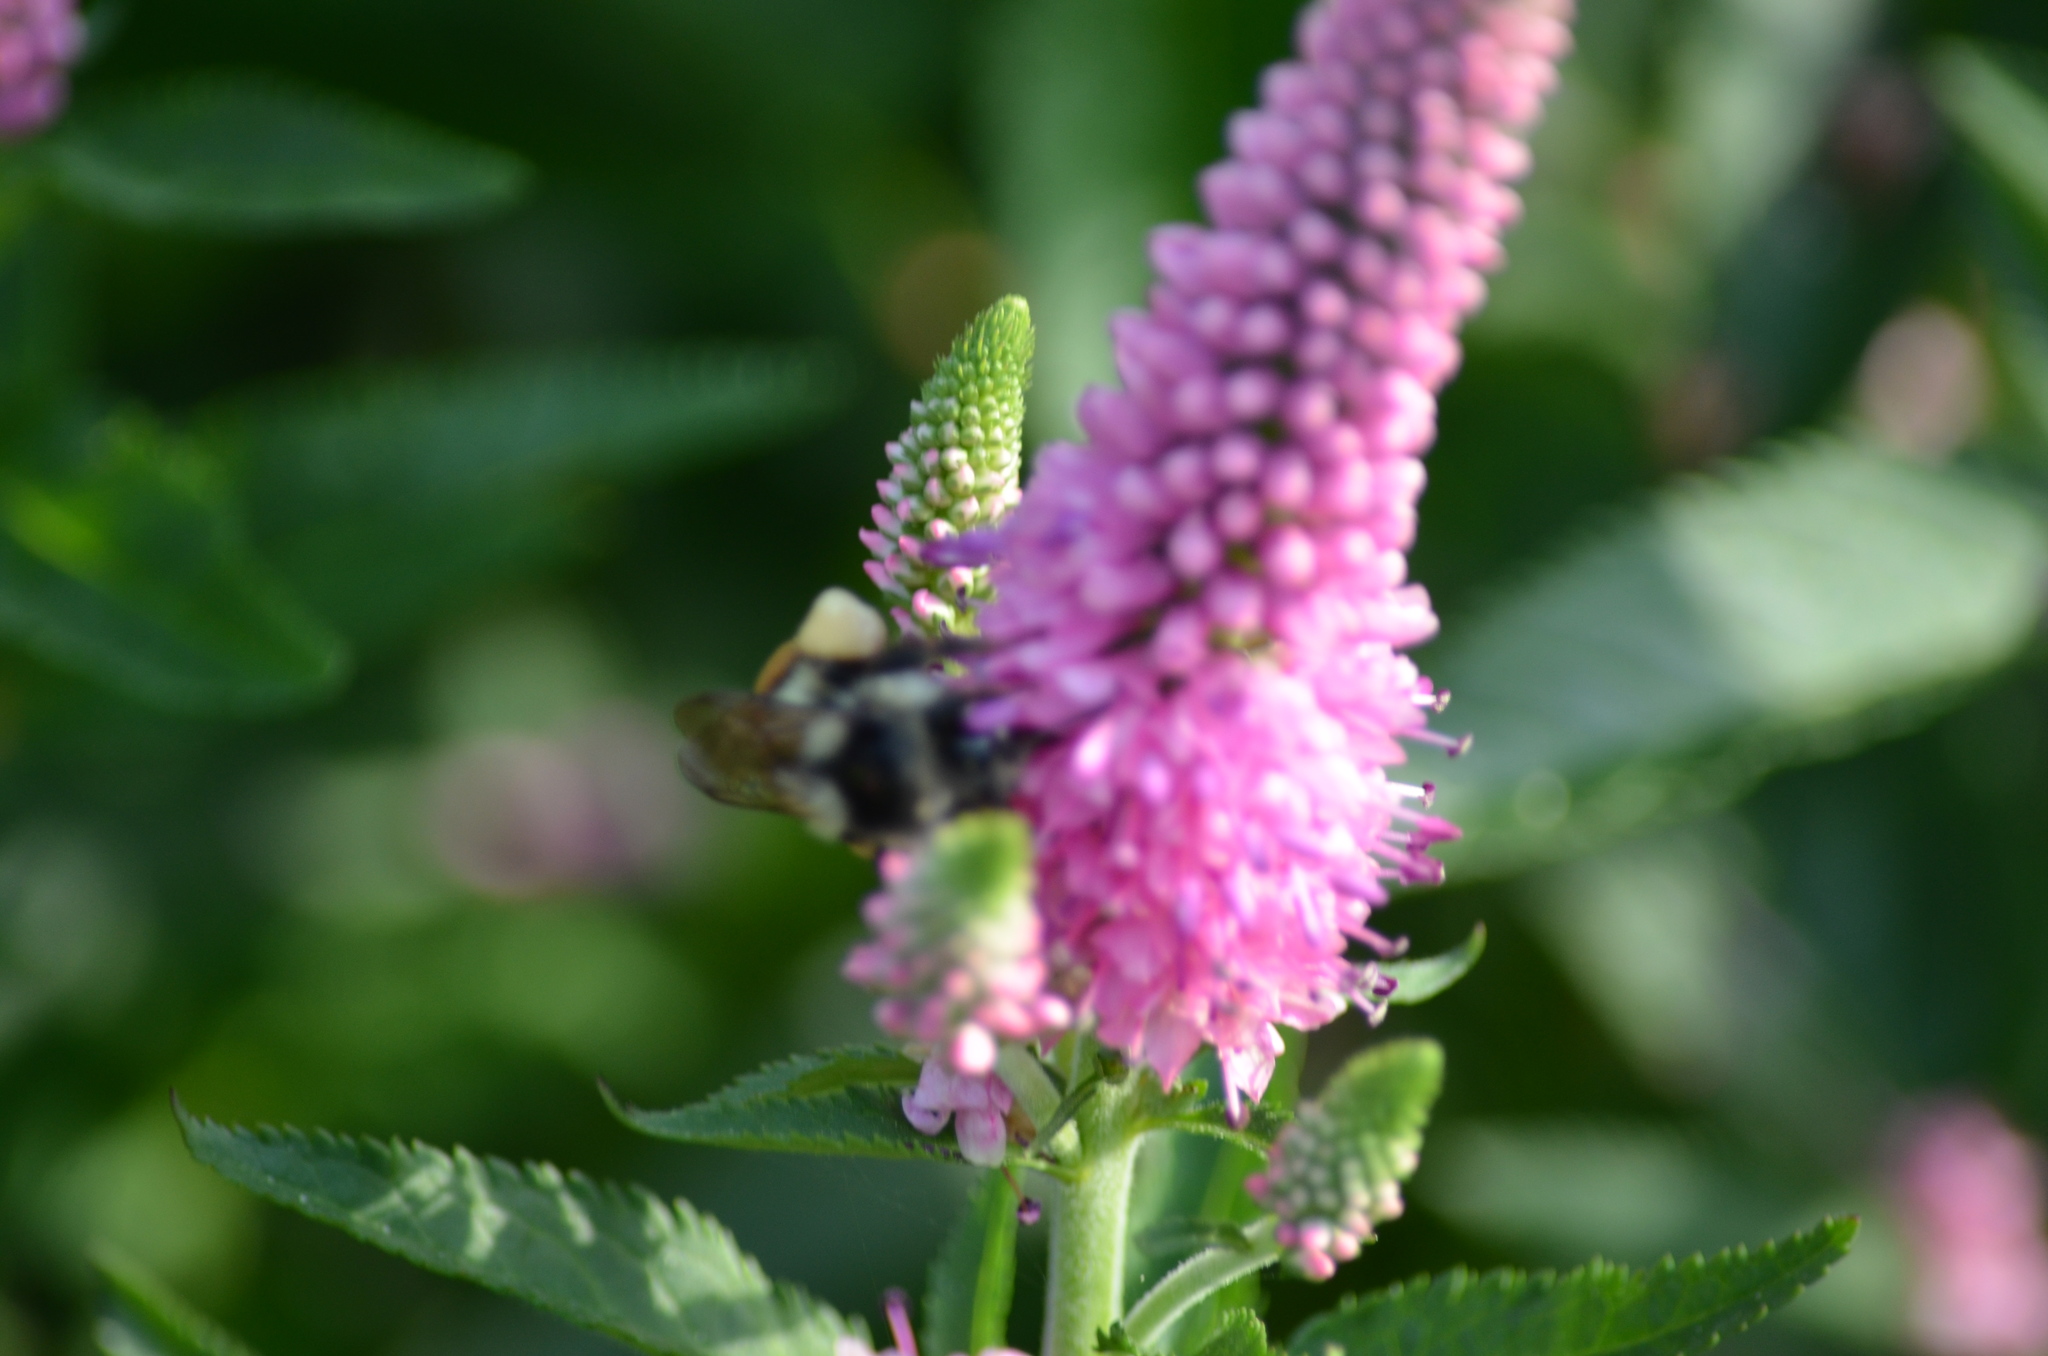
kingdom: Animalia
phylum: Arthropoda
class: Insecta
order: Hymenoptera
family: Apidae
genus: Bombus
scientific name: Bombus vancouverensis
